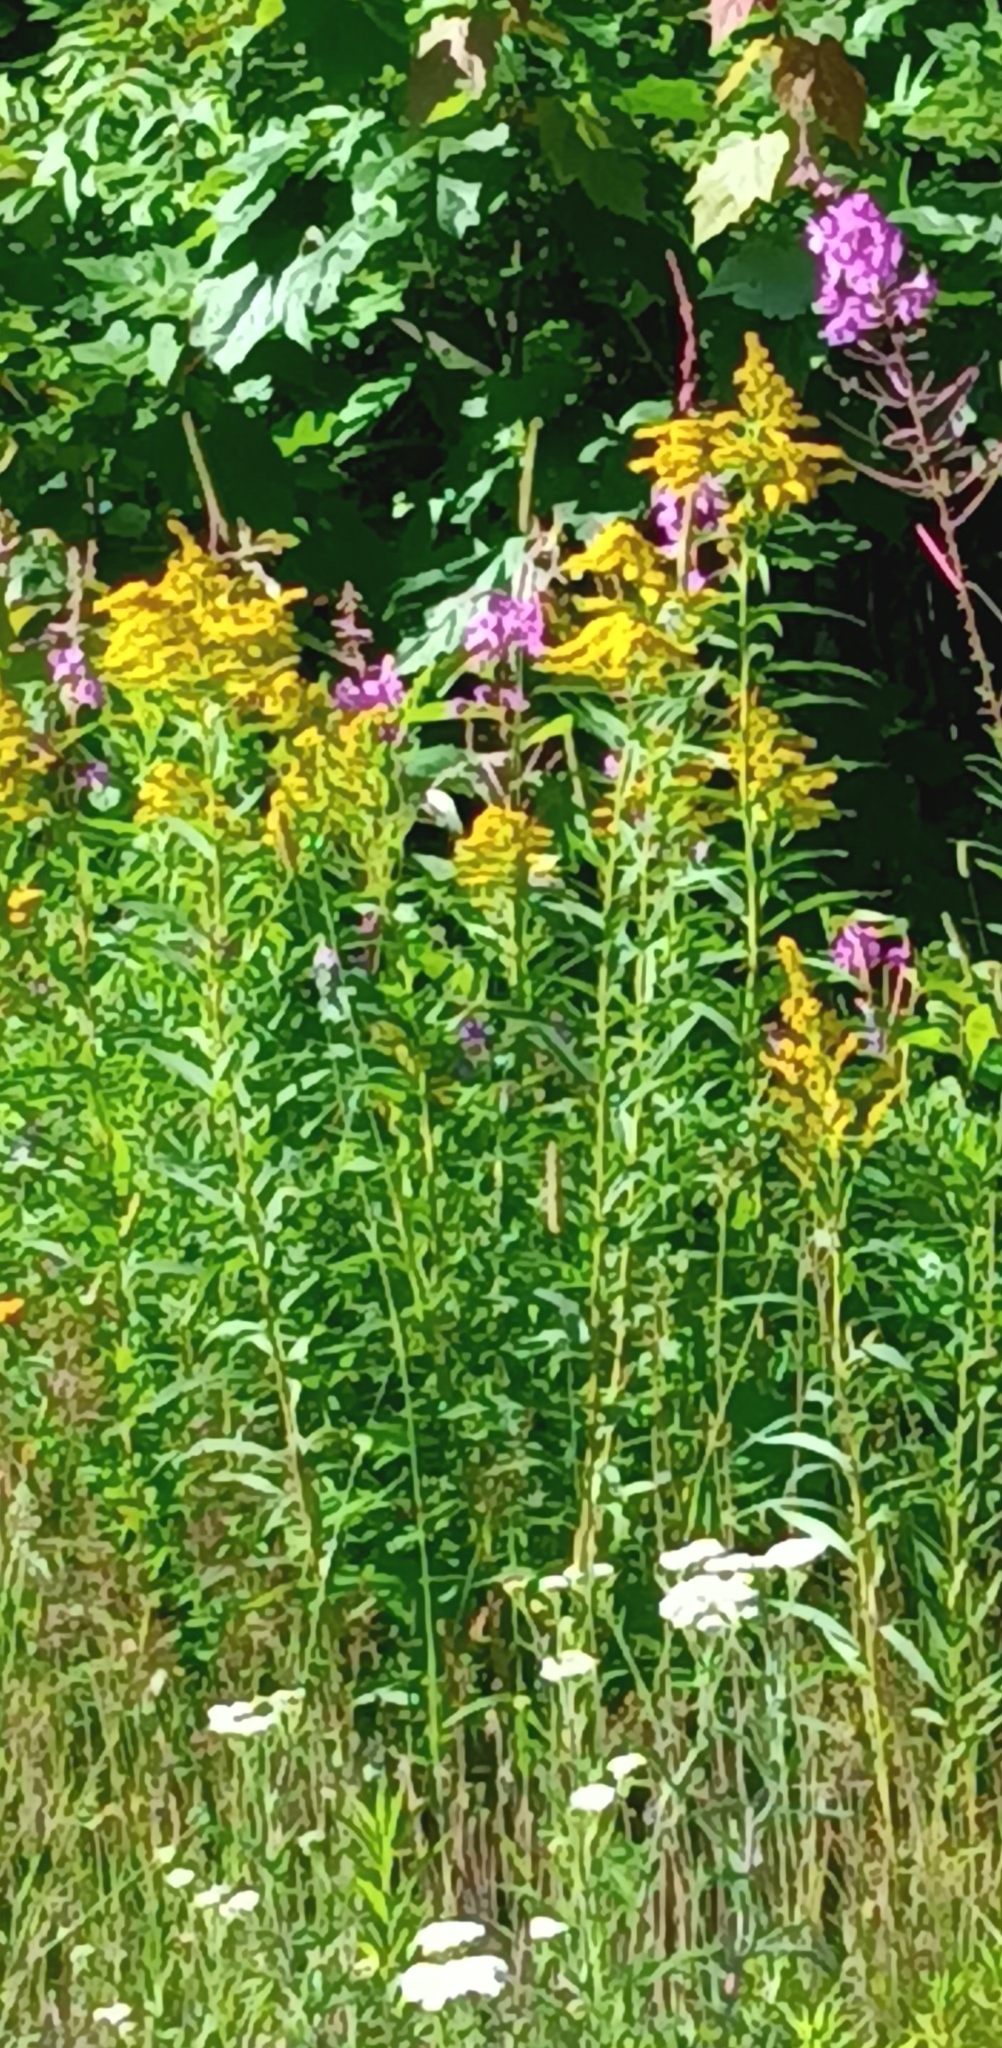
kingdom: Plantae
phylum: Tracheophyta
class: Magnoliopsida
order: Asterales
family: Asteraceae
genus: Solidago
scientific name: Solidago canadensis
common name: Canada goldenrod
